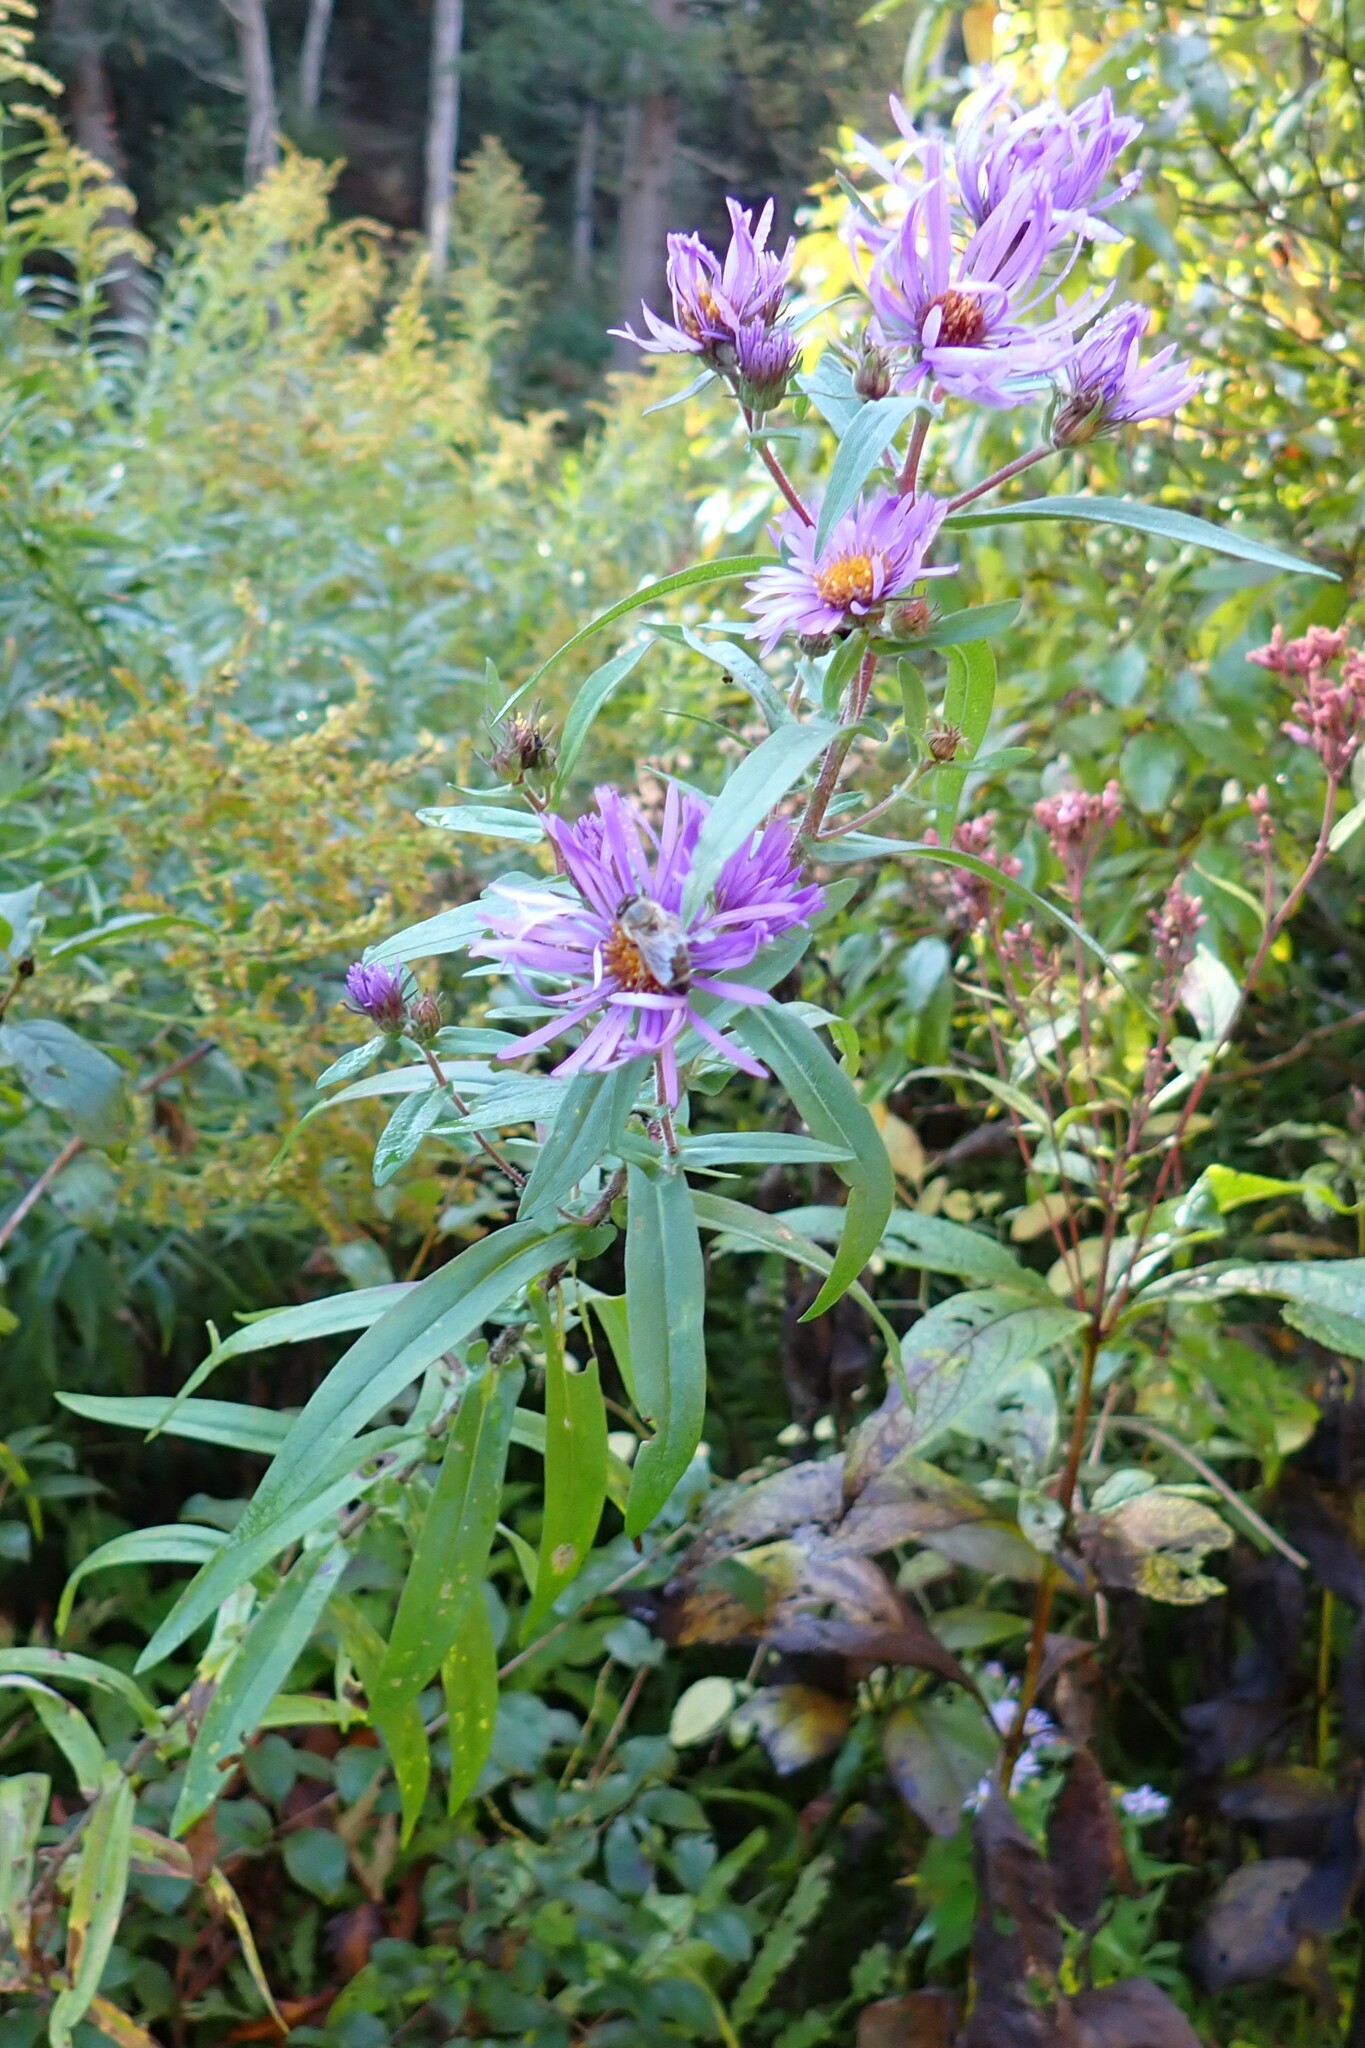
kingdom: Plantae
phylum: Tracheophyta
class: Magnoliopsida
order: Asterales
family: Asteraceae
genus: Symphyotrichum
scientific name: Symphyotrichum novae-angliae
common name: Michaelmas daisy
